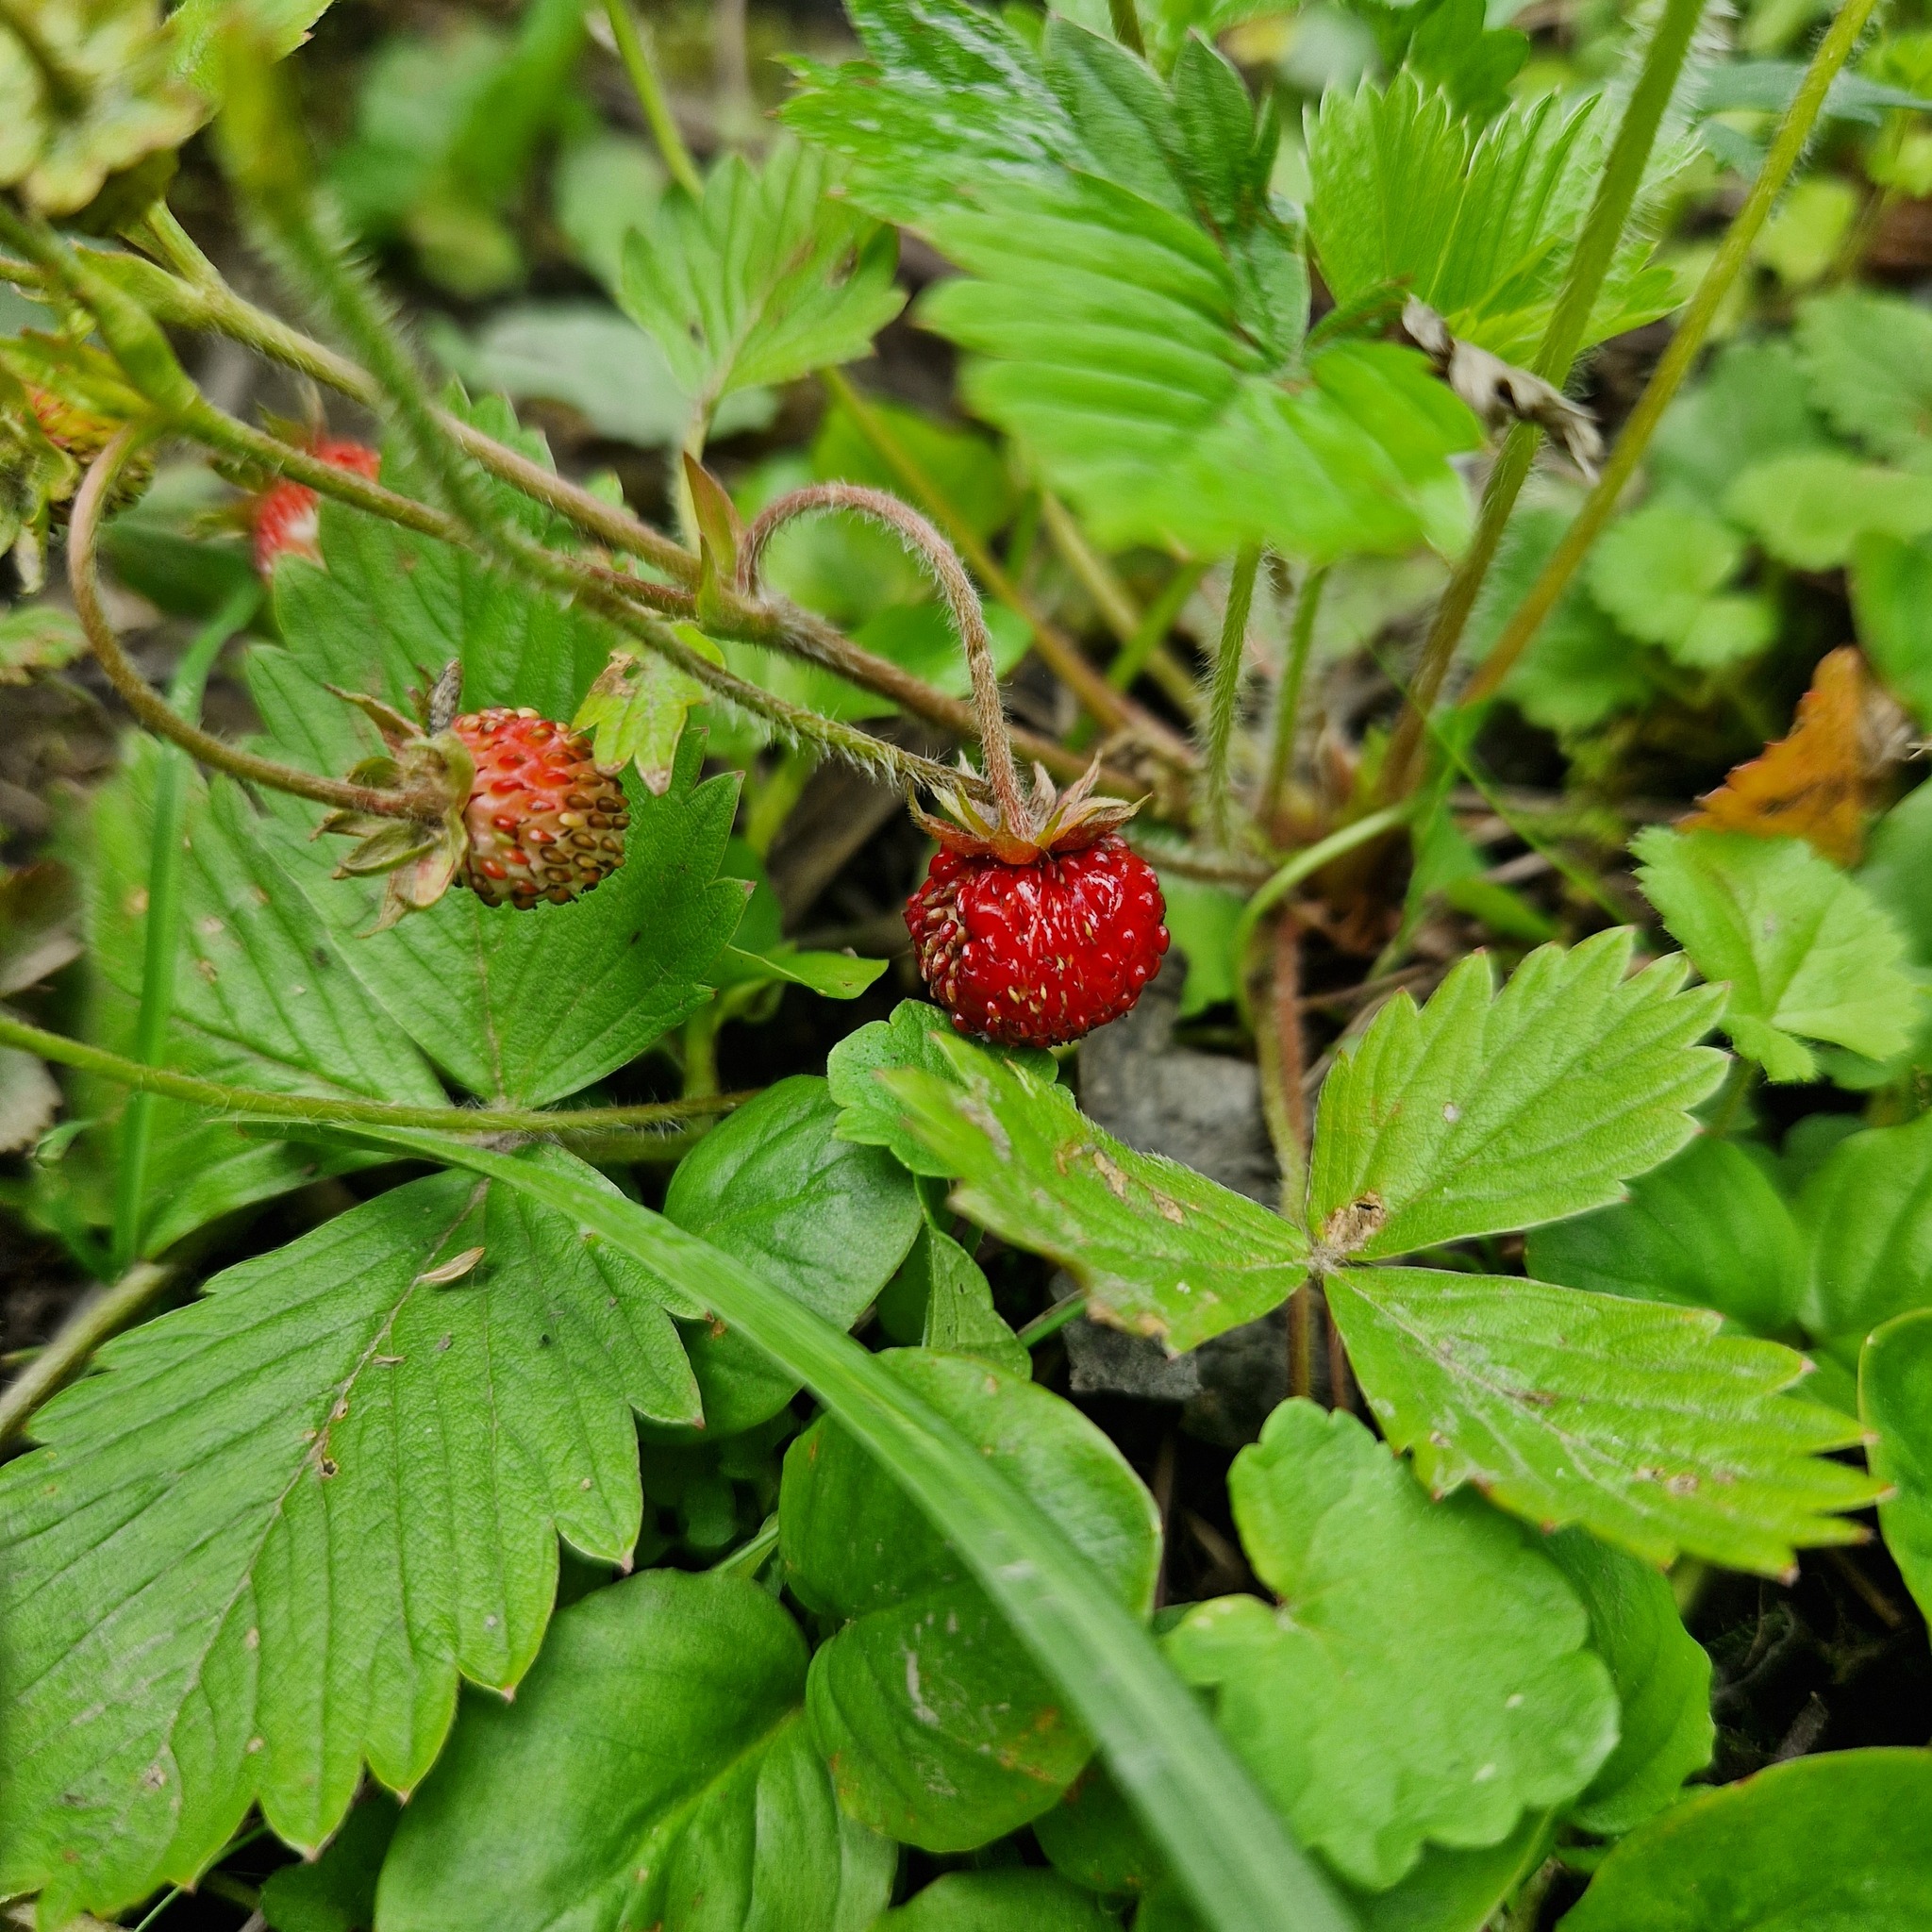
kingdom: Plantae
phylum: Tracheophyta
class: Magnoliopsida
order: Rosales
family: Rosaceae
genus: Fragaria
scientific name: Fragaria vesca
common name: Wild strawberry
